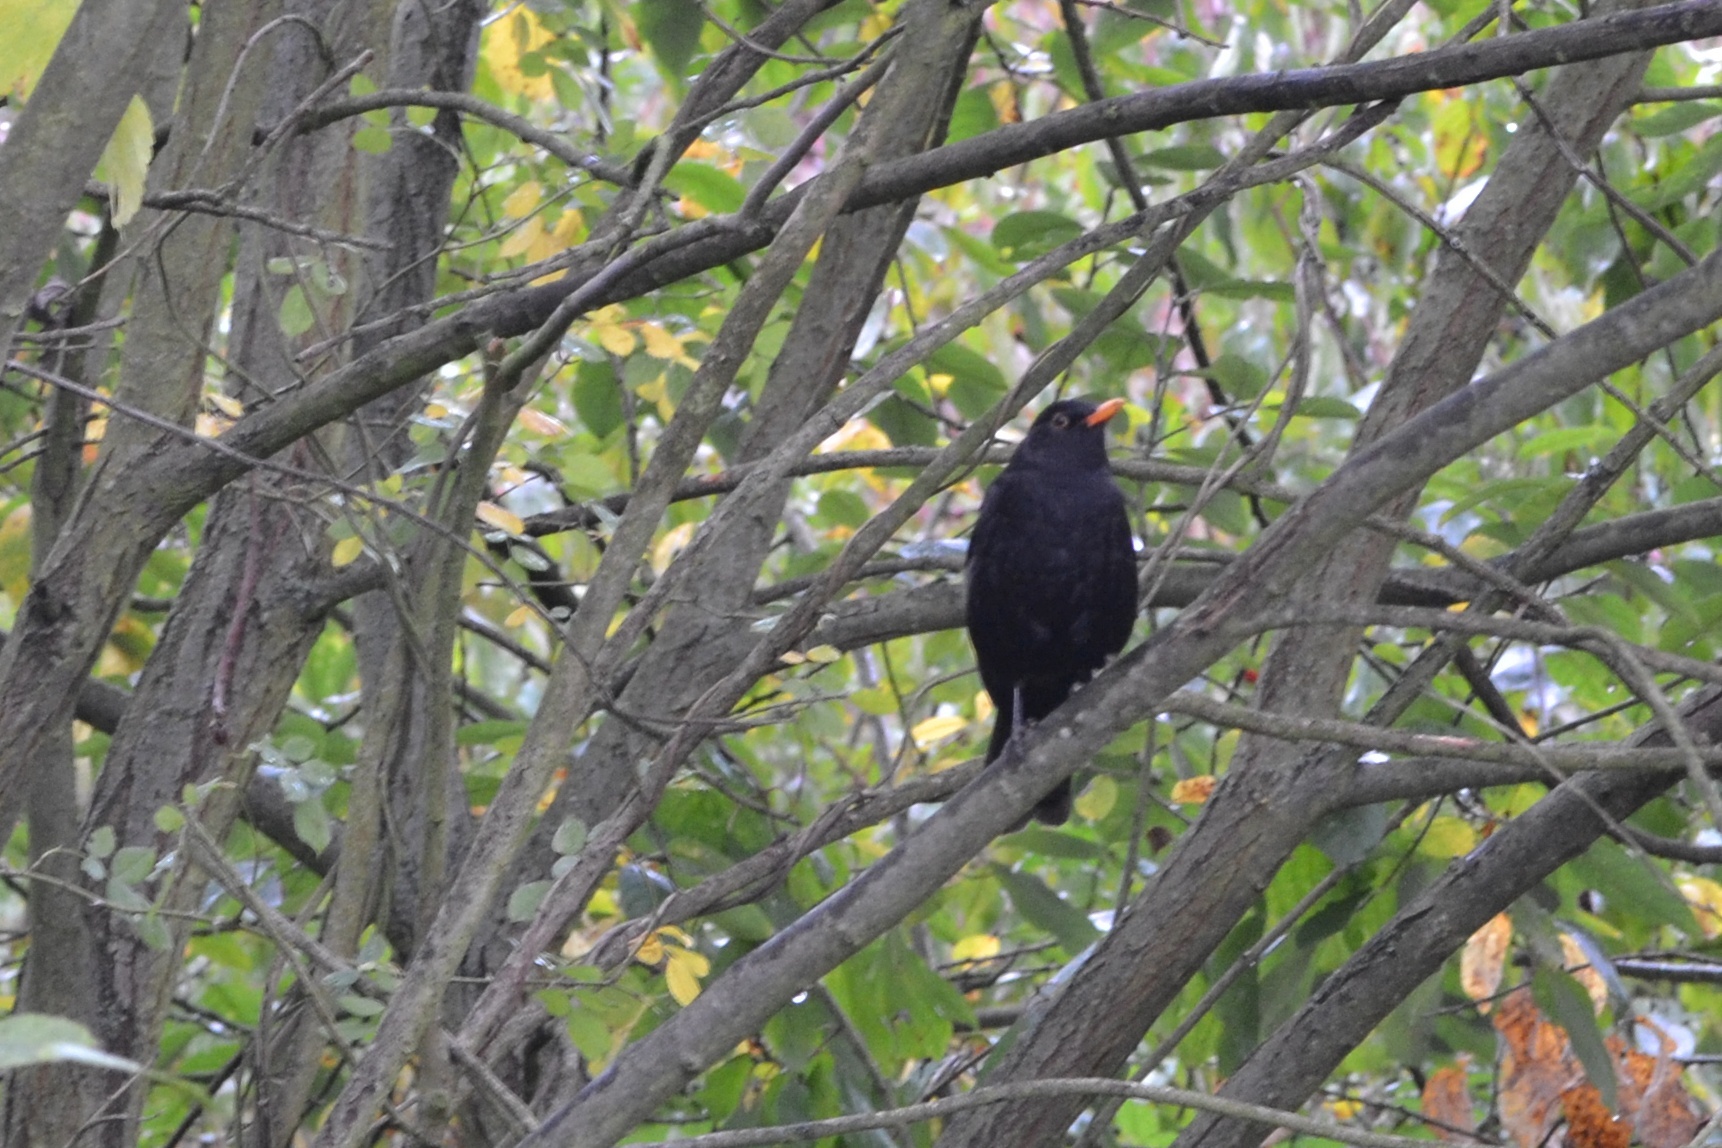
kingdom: Animalia
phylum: Chordata
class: Aves
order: Passeriformes
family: Turdidae
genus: Turdus
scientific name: Turdus merula
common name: Common blackbird
